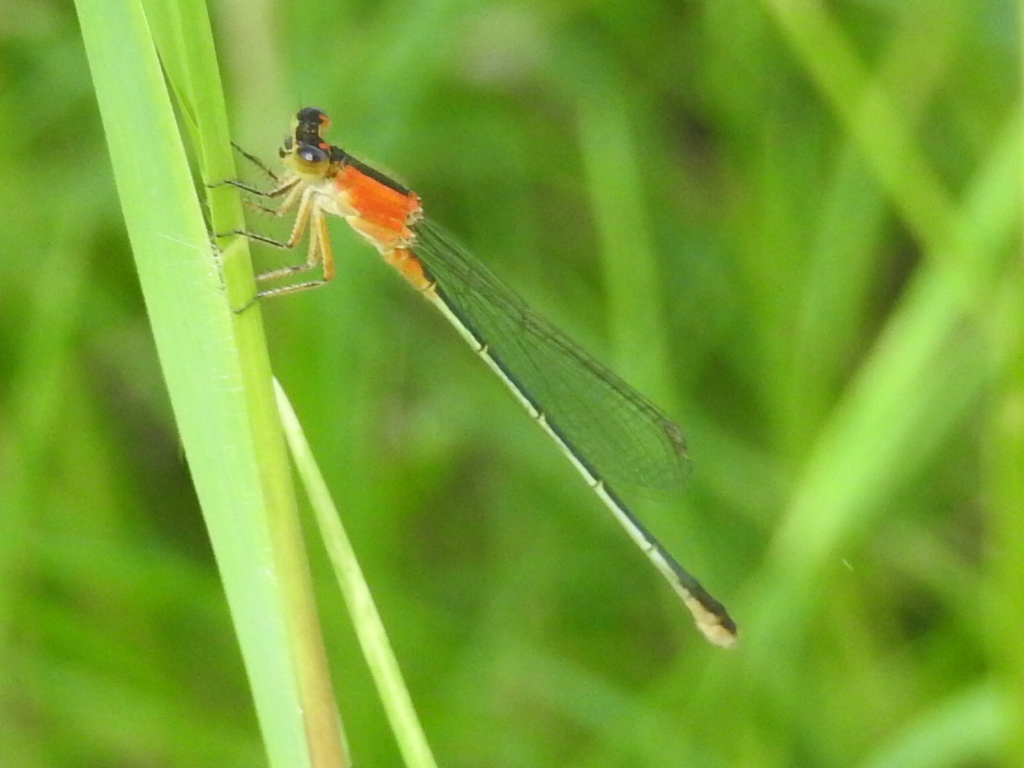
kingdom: Animalia
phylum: Arthropoda
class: Insecta
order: Odonata
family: Coenagrionidae
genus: Ischnura
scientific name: Ischnura ramburii
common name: Rambur's forktail
